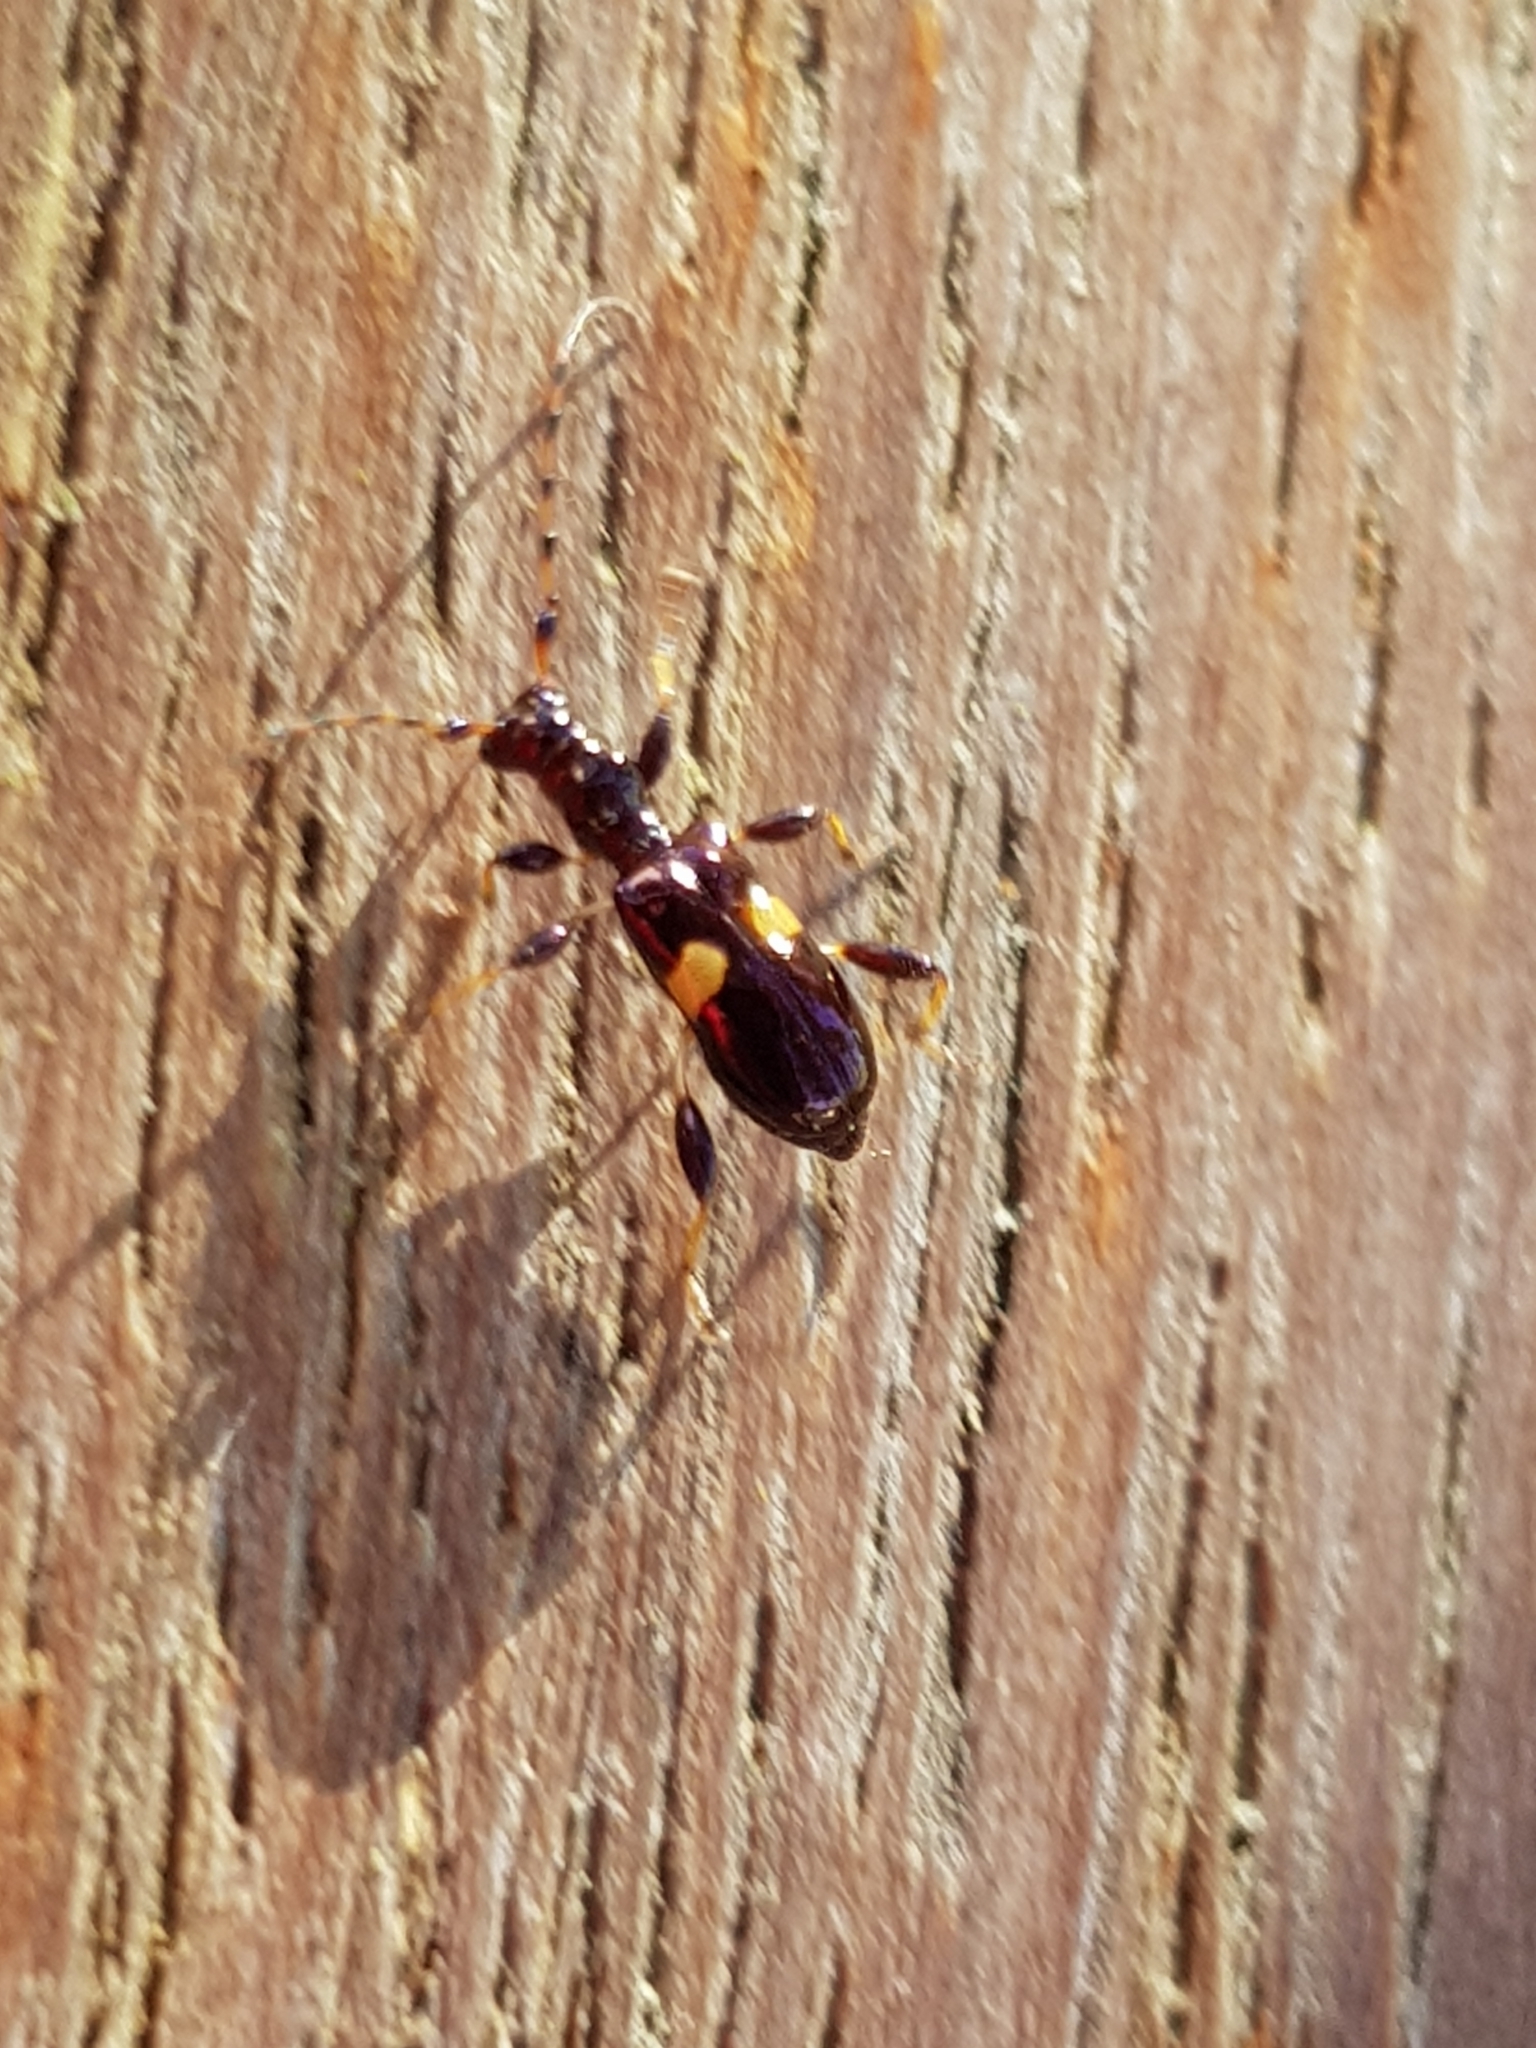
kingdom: Animalia
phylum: Arthropoda
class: Insecta
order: Coleoptera
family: Cerambycidae
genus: Zorion
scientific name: Zorion guttigerum
